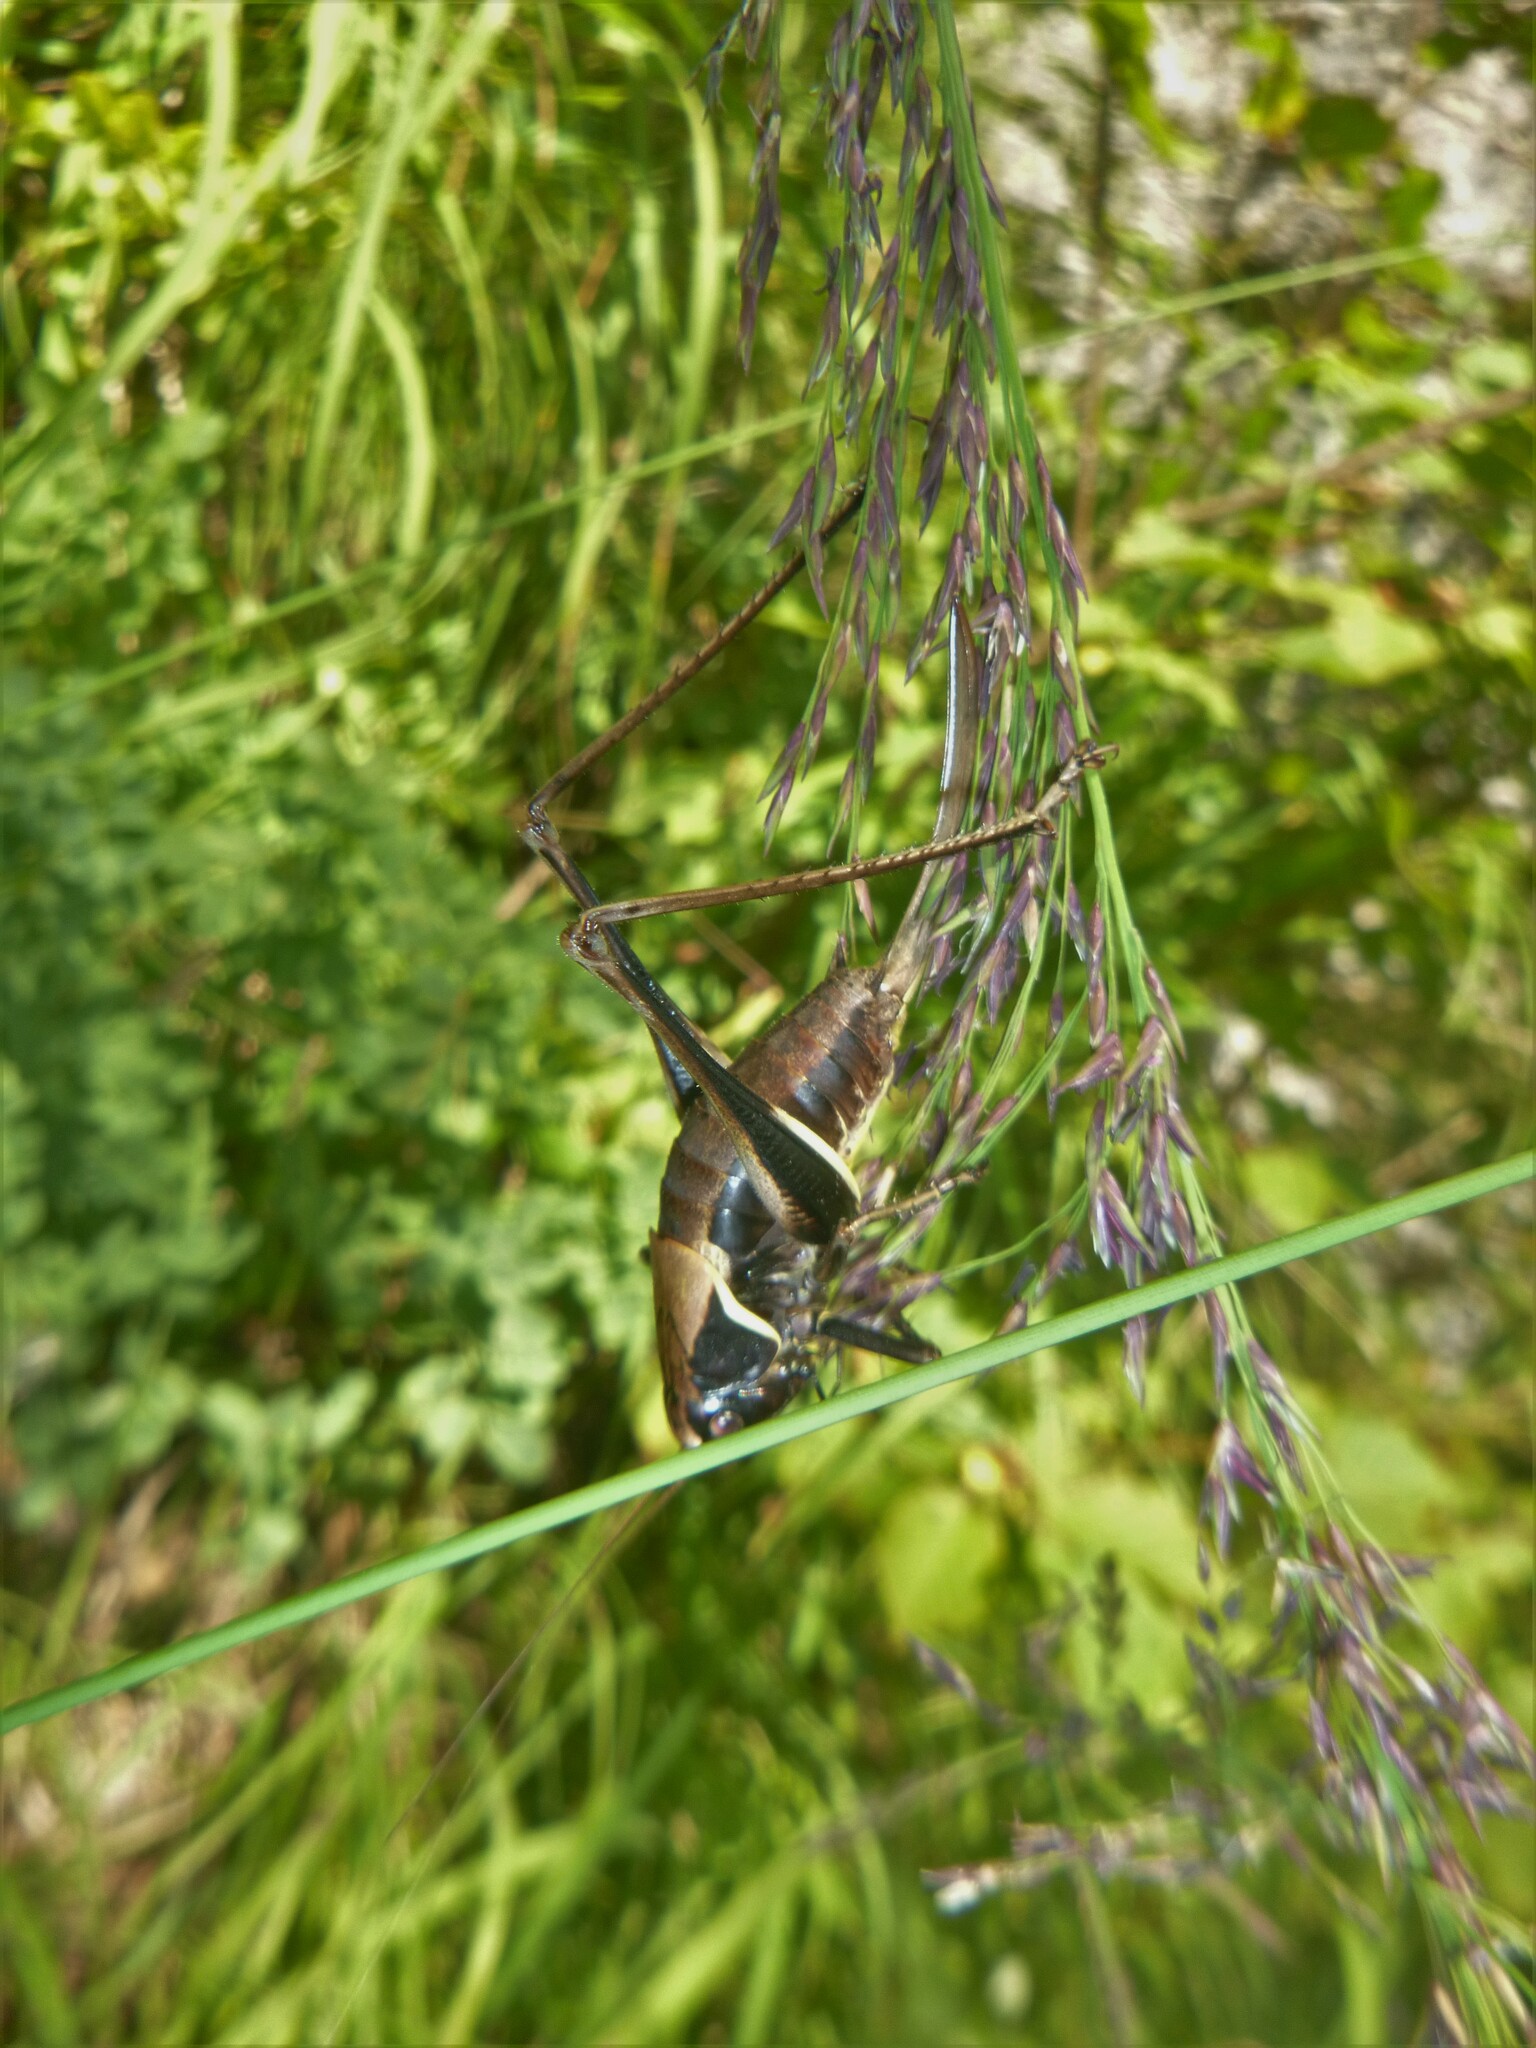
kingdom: Animalia
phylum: Arthropoda
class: Insecta
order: Orthoptera
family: Tettigoniidae
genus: Pholidoptera
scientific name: Pholidoptera aptera
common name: Alpine dark bush-cricket
